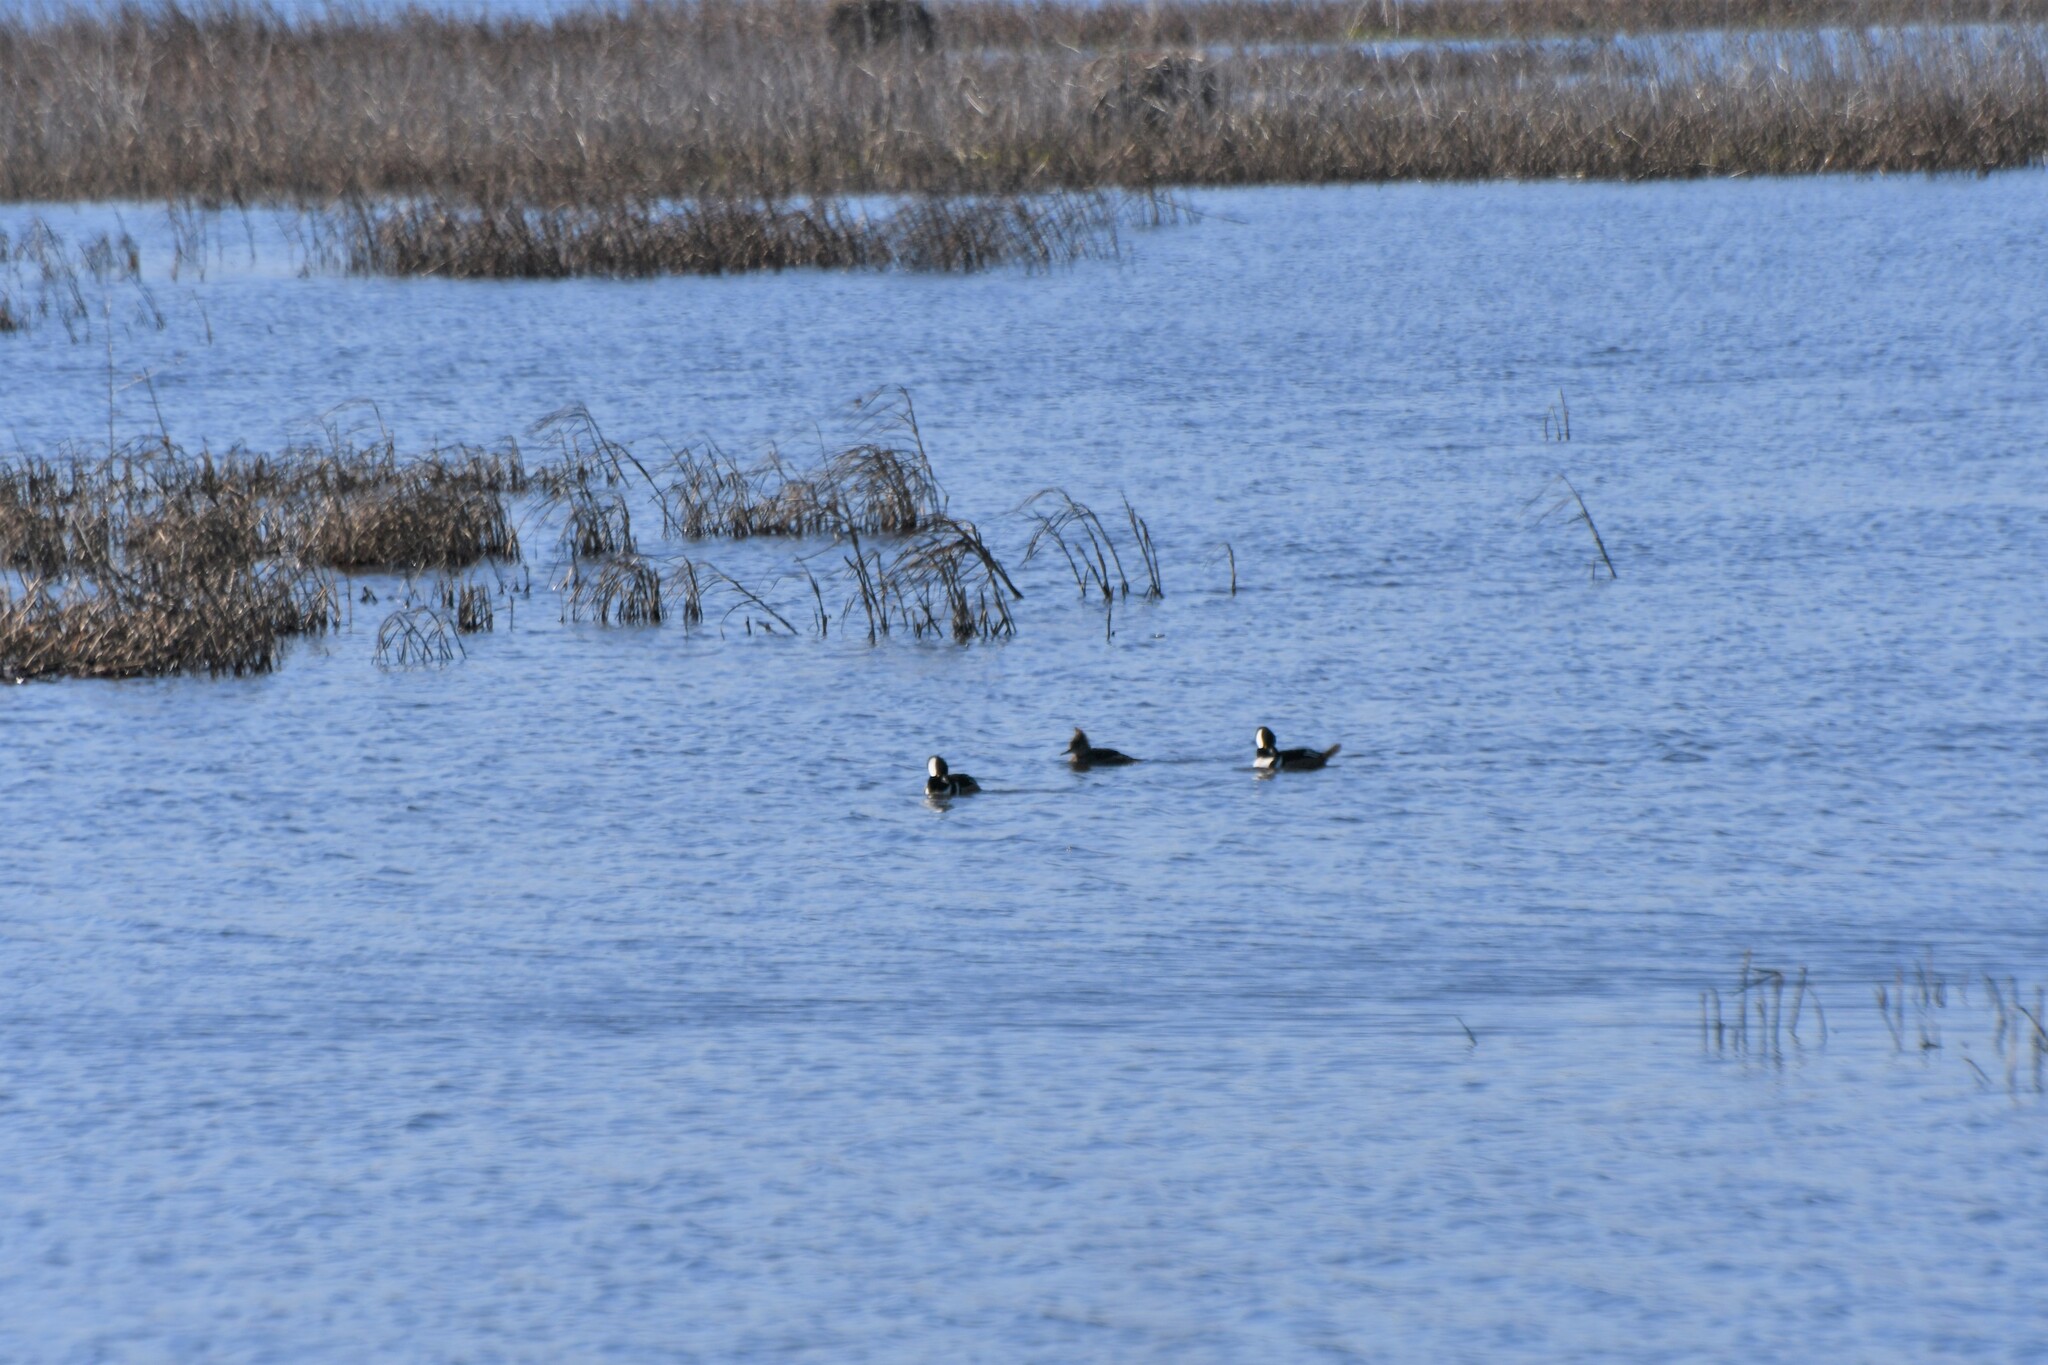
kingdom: Animalia
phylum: Chordata
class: Aves
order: Anseriformes
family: Anatidae
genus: Lophodytes
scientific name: Lophodytes cucullatus
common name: Hooded merganser
